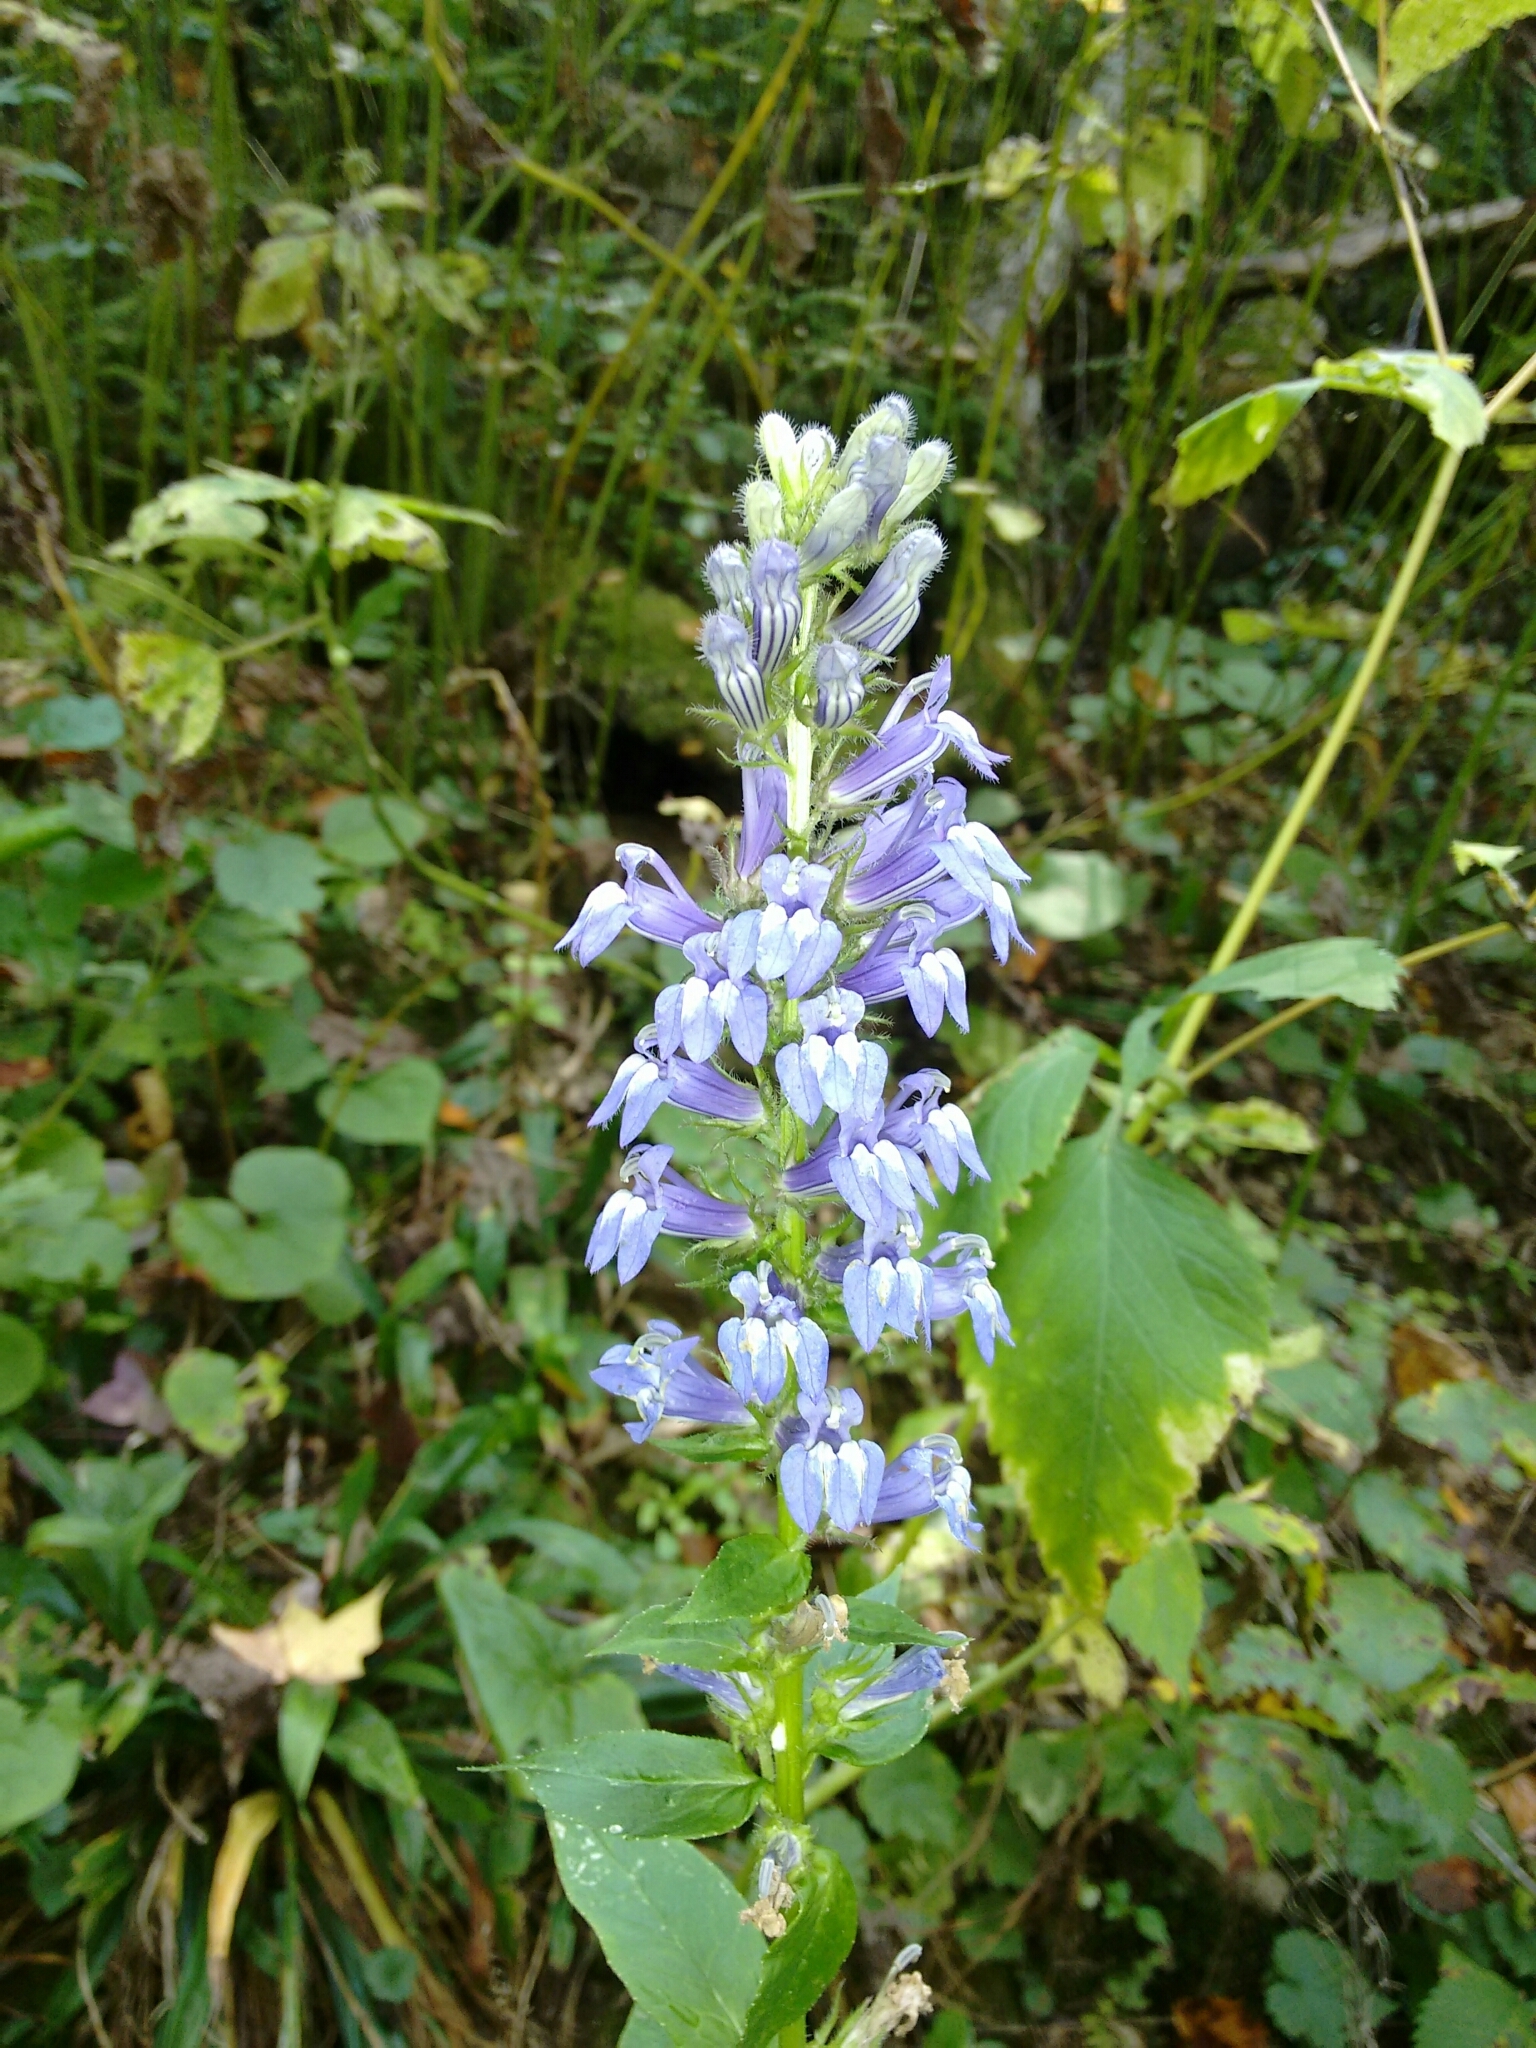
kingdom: Plantae
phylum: Tracheophyta
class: Magnoliopsida
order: Asterales
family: Campanulaceae
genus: Lobelia
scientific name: Lobelia siphilitica
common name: Great lobelia
